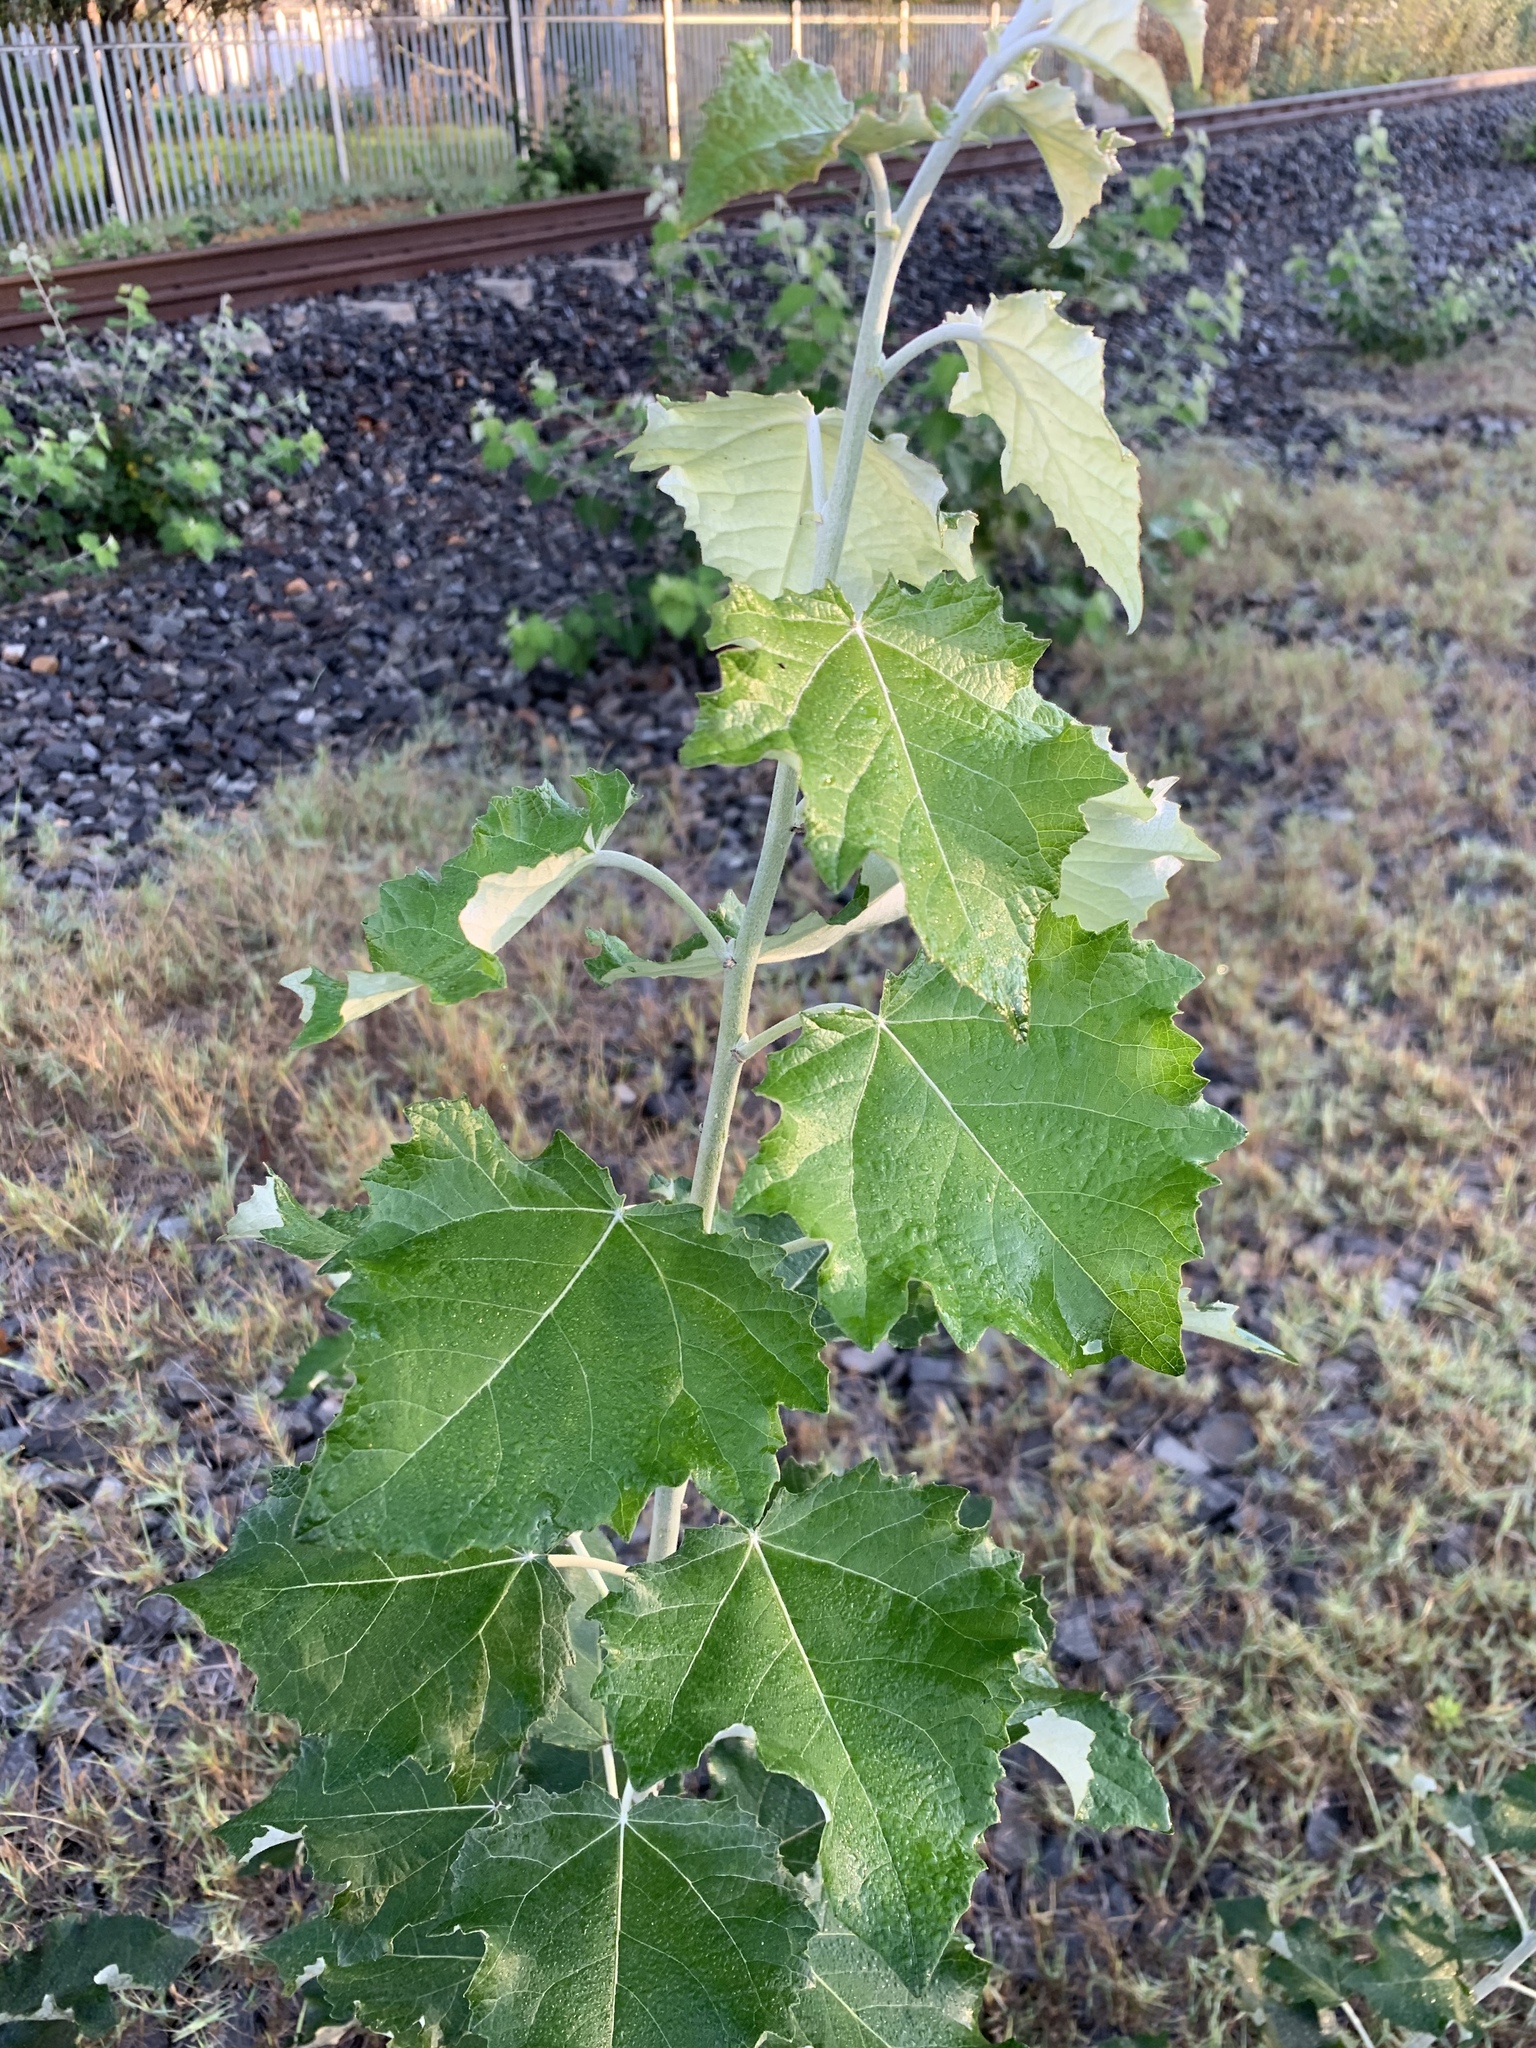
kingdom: Plantae
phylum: Tracheophyta
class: Magnoliopsida
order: Malpighiales
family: Salicaceae
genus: Populus
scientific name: Populus canescens
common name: Gray poplar
